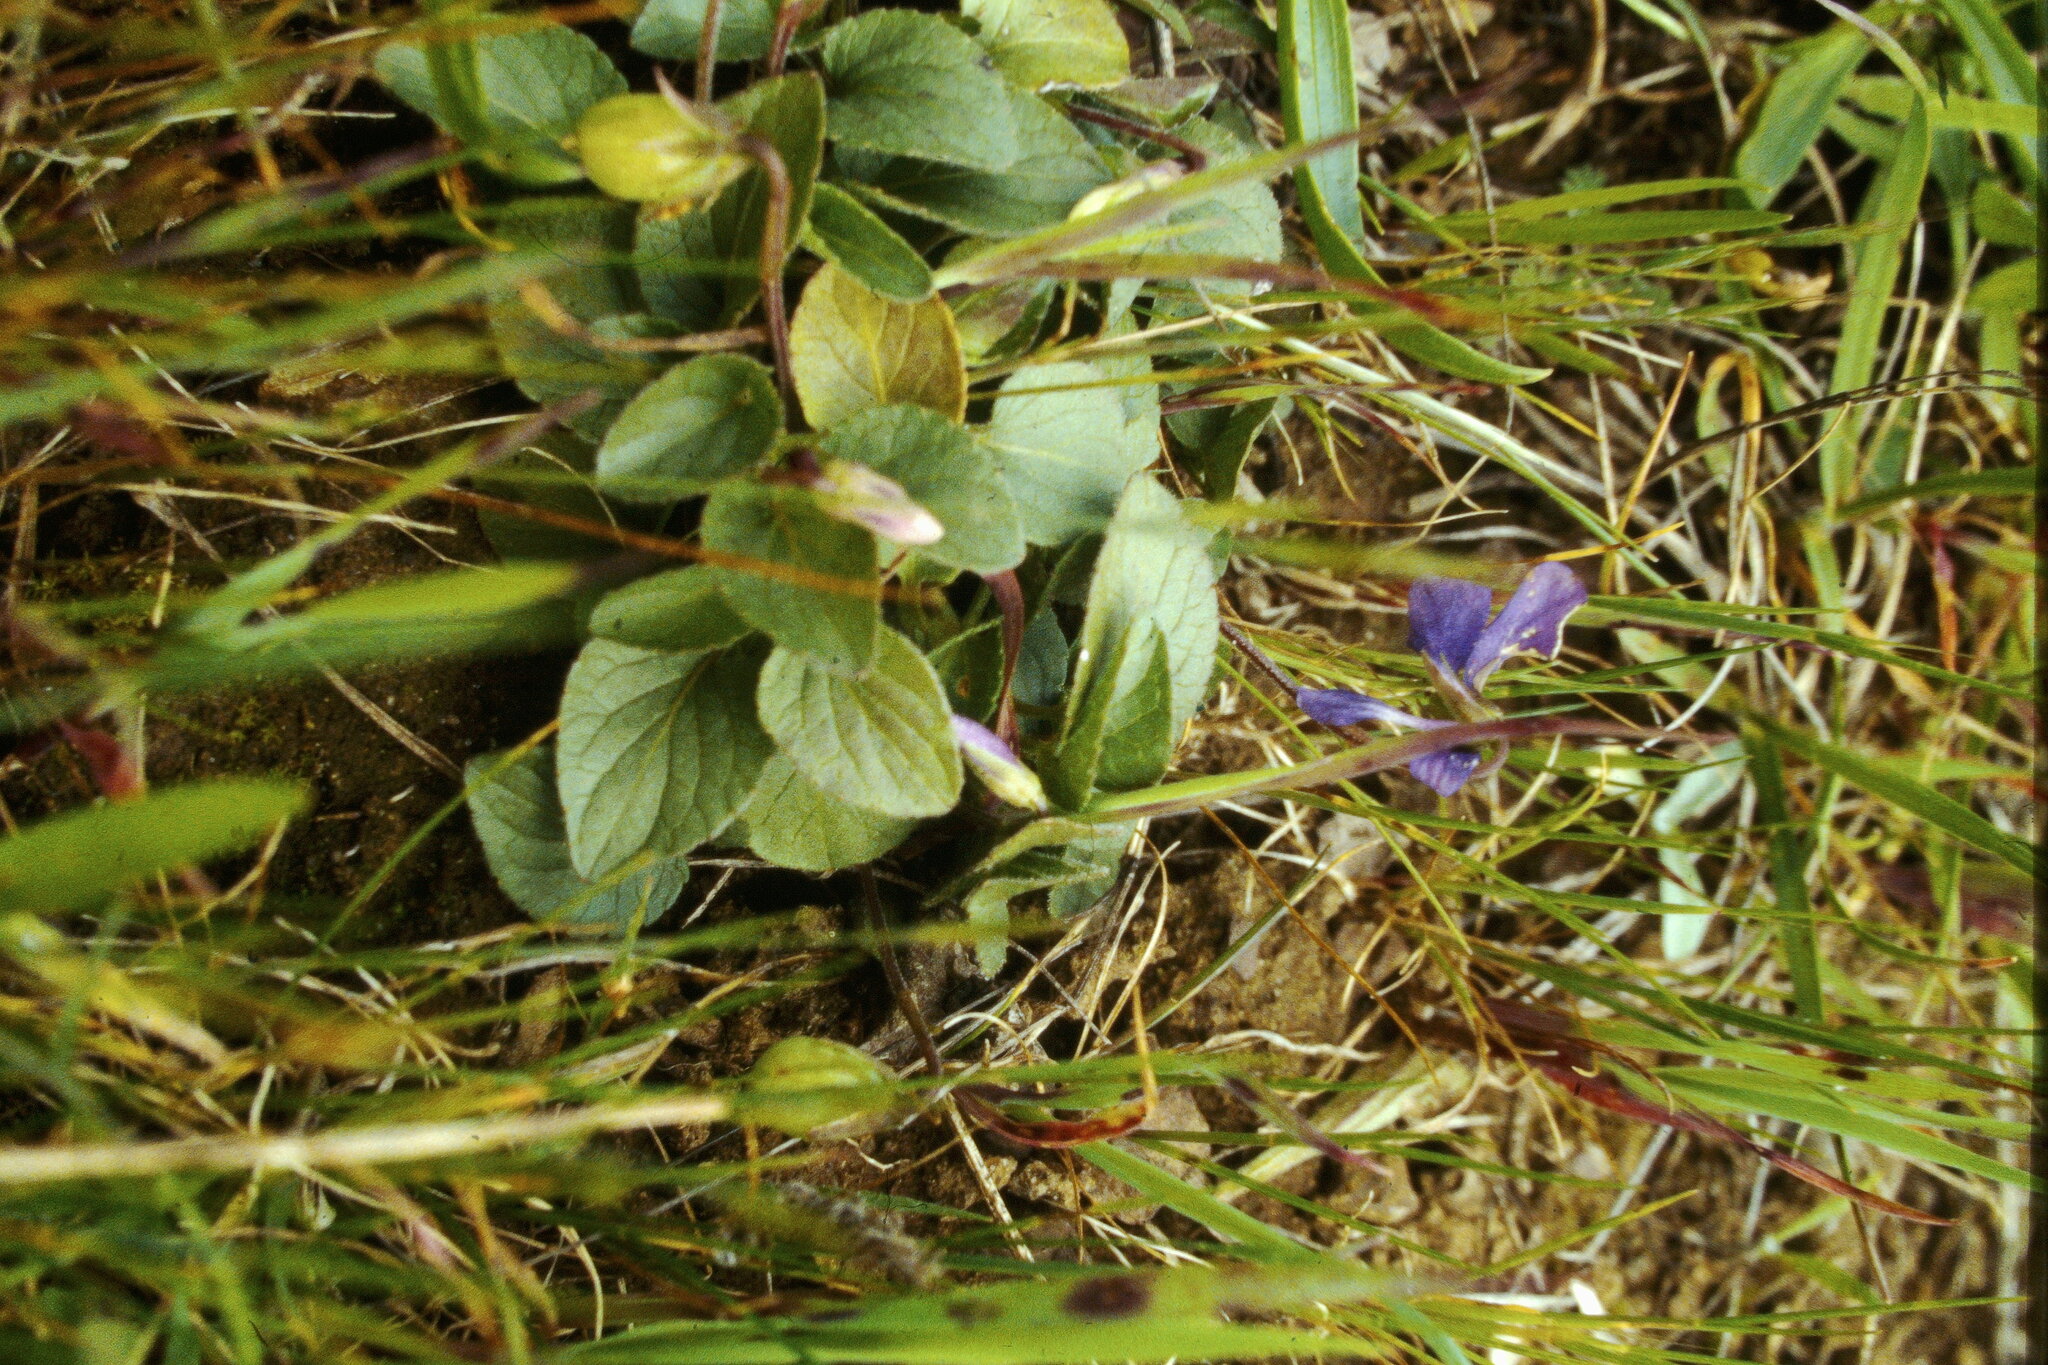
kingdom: Plantae
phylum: Tracheophyta
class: Magnoliopsida
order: Malpighiales
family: Violaceae
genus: Viola
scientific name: Viola adunca
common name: Sand violet
